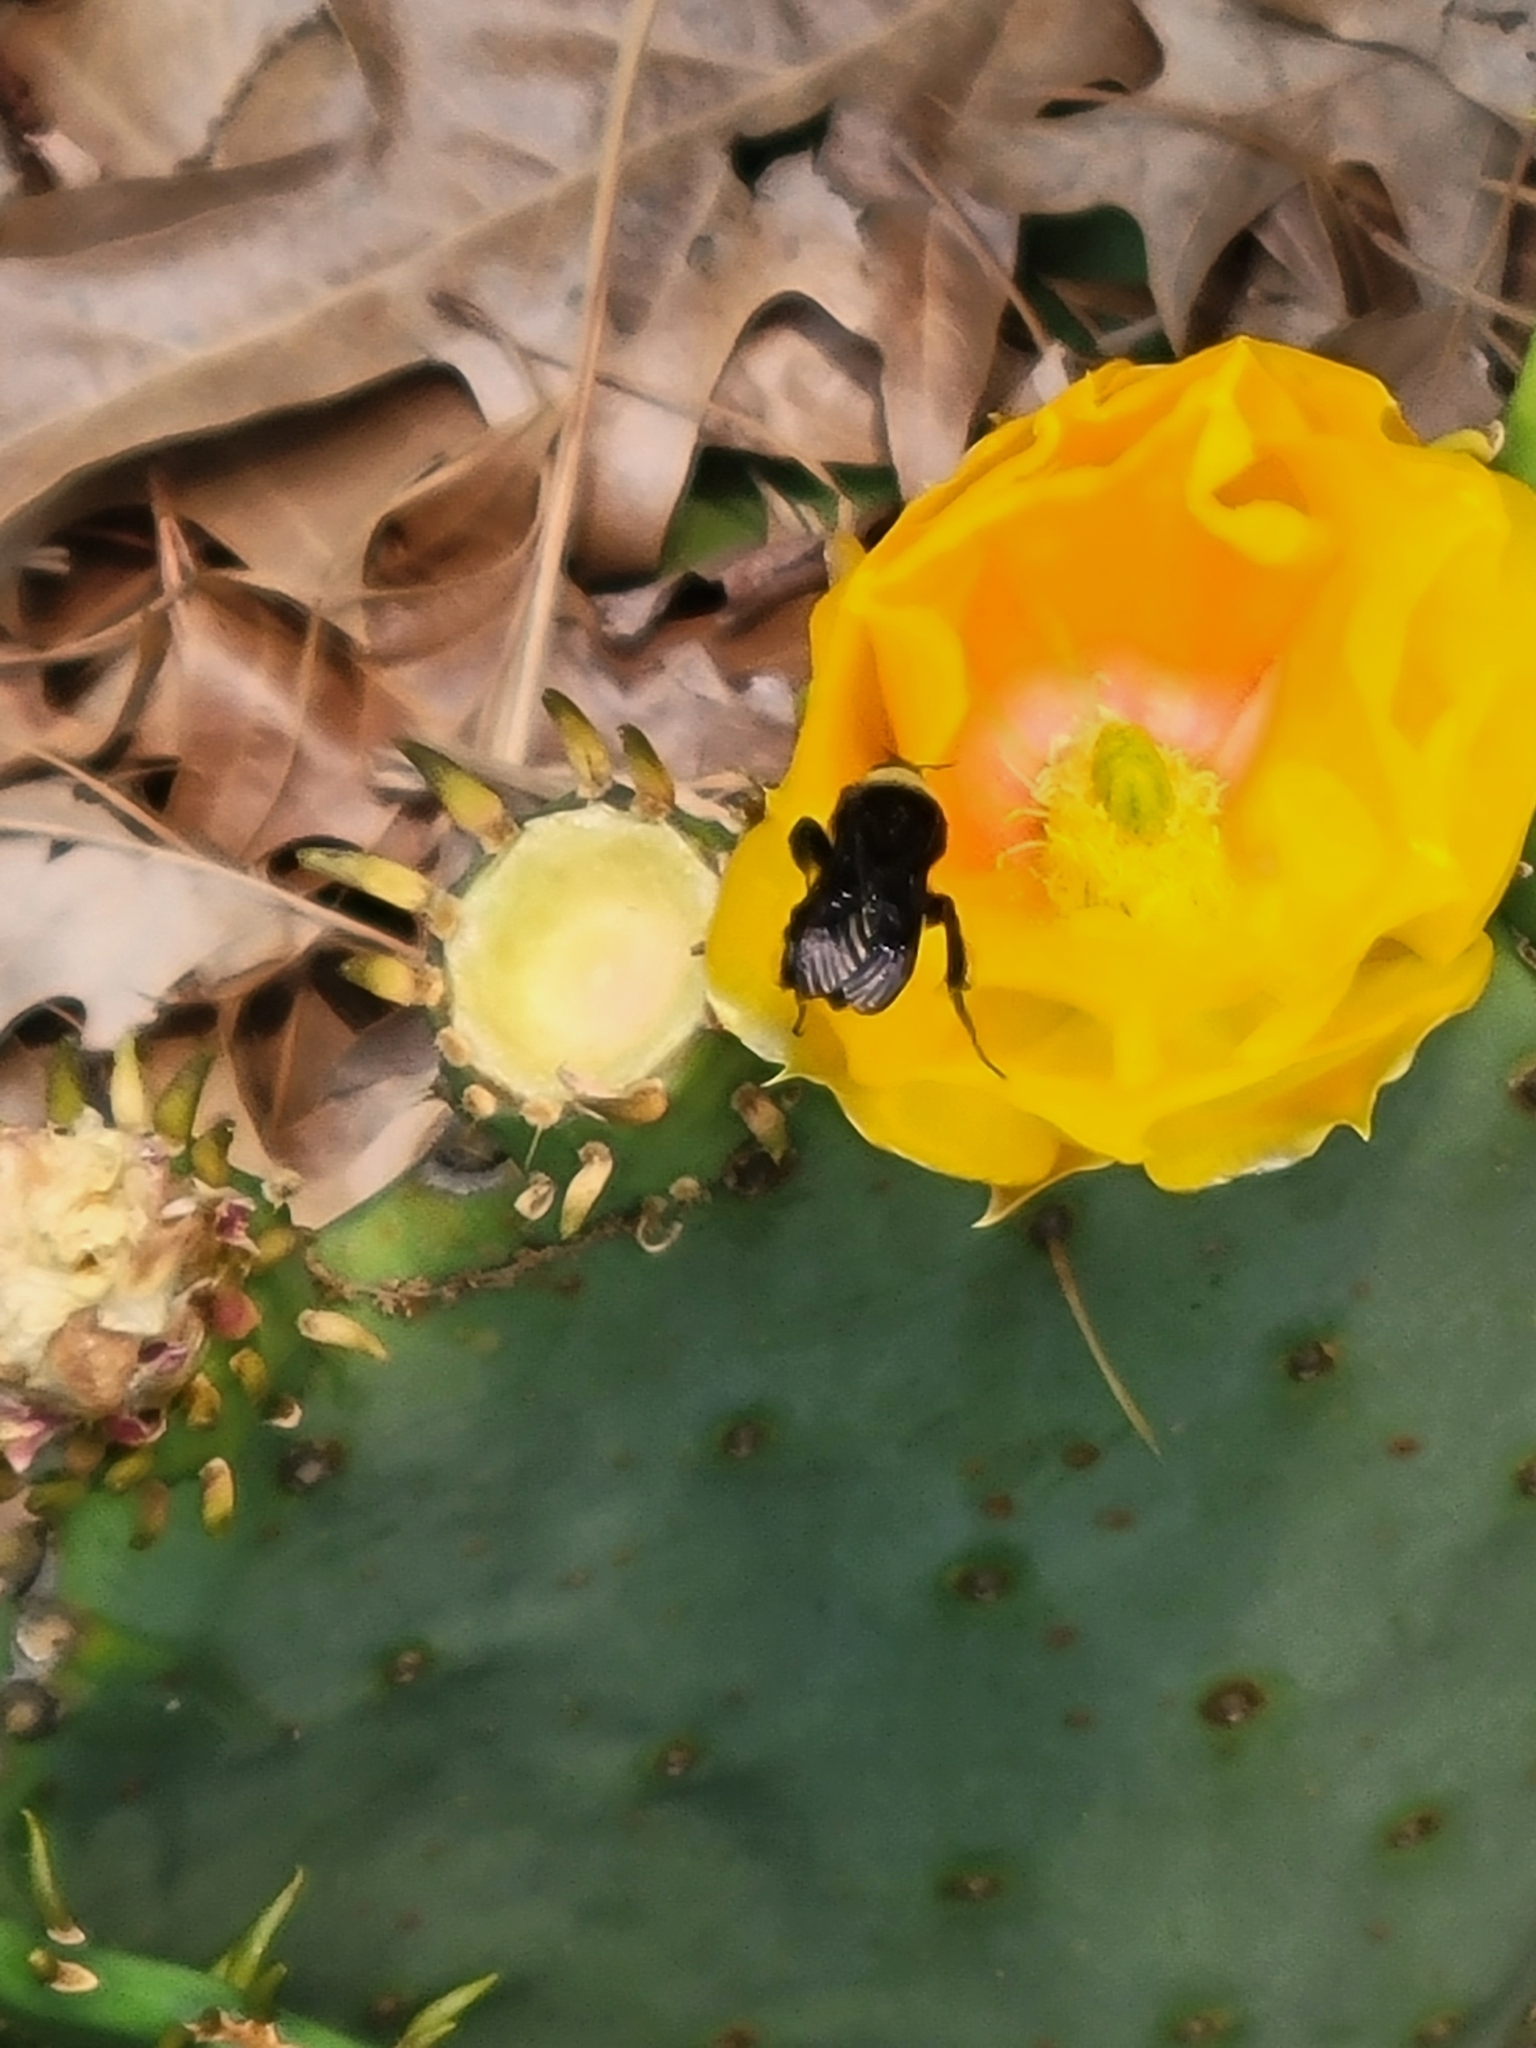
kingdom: Animalia
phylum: Arthropoda
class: Insecta
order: Hymenoptera
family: Apidae
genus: Bombus
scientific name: Bombus pensylvanicus
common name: Bumble bee
